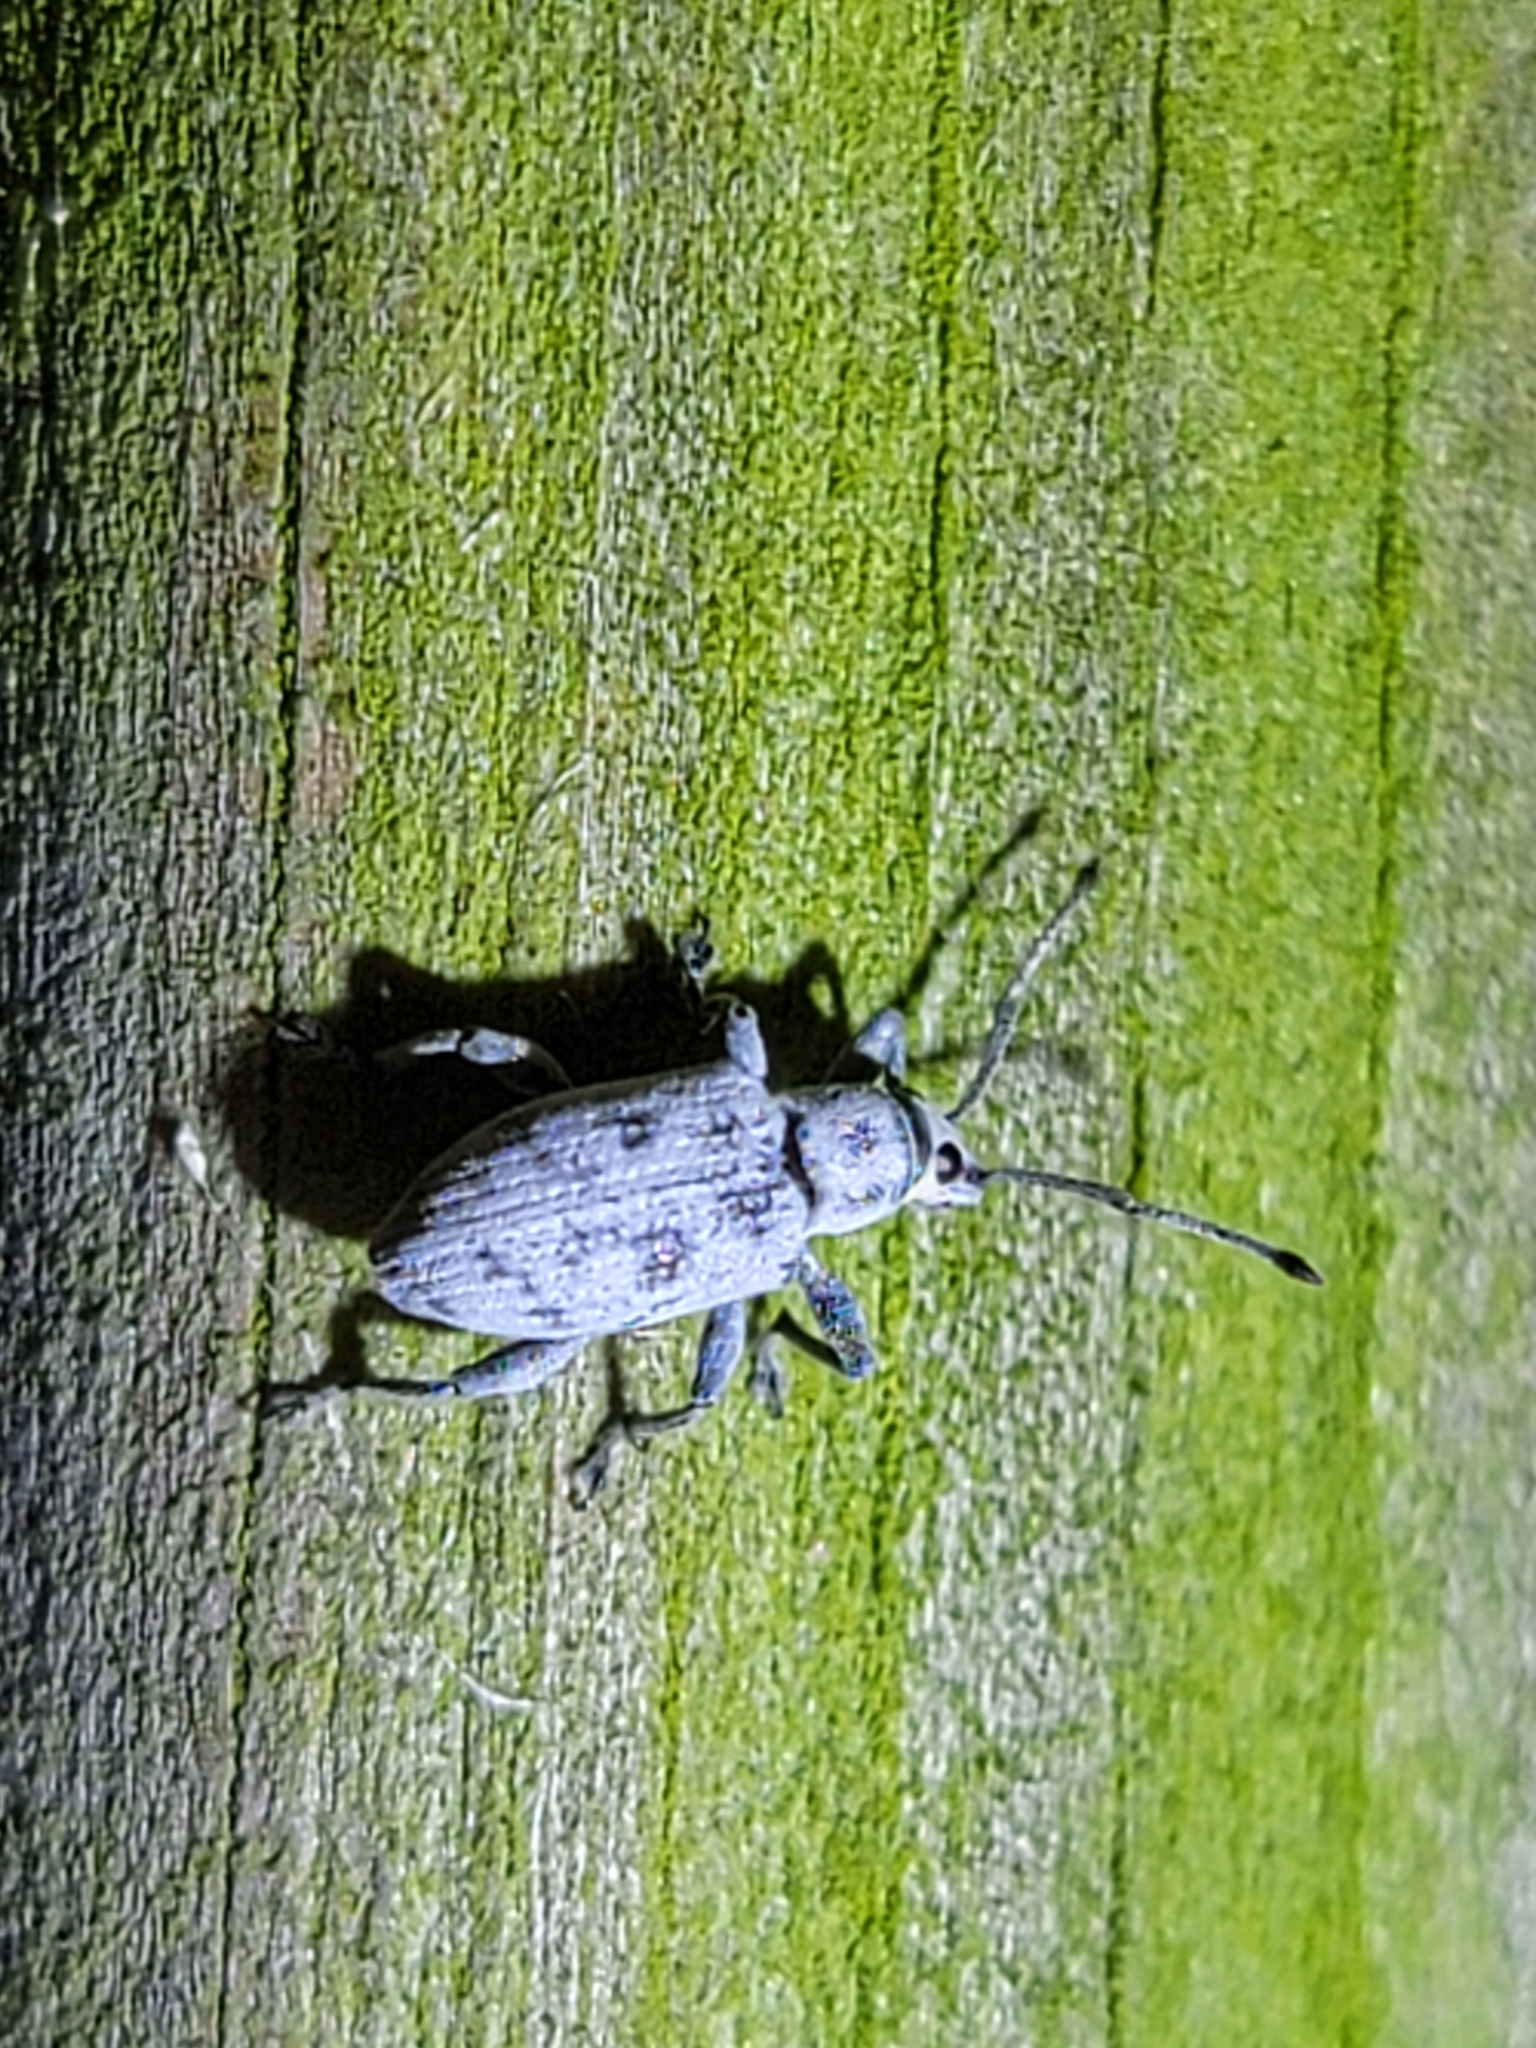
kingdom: Animalia
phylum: Arthropoda
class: Insecta
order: Coleoptera
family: Curculionidae
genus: Myllocerus
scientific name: Myllocerus undecimpustulatus
